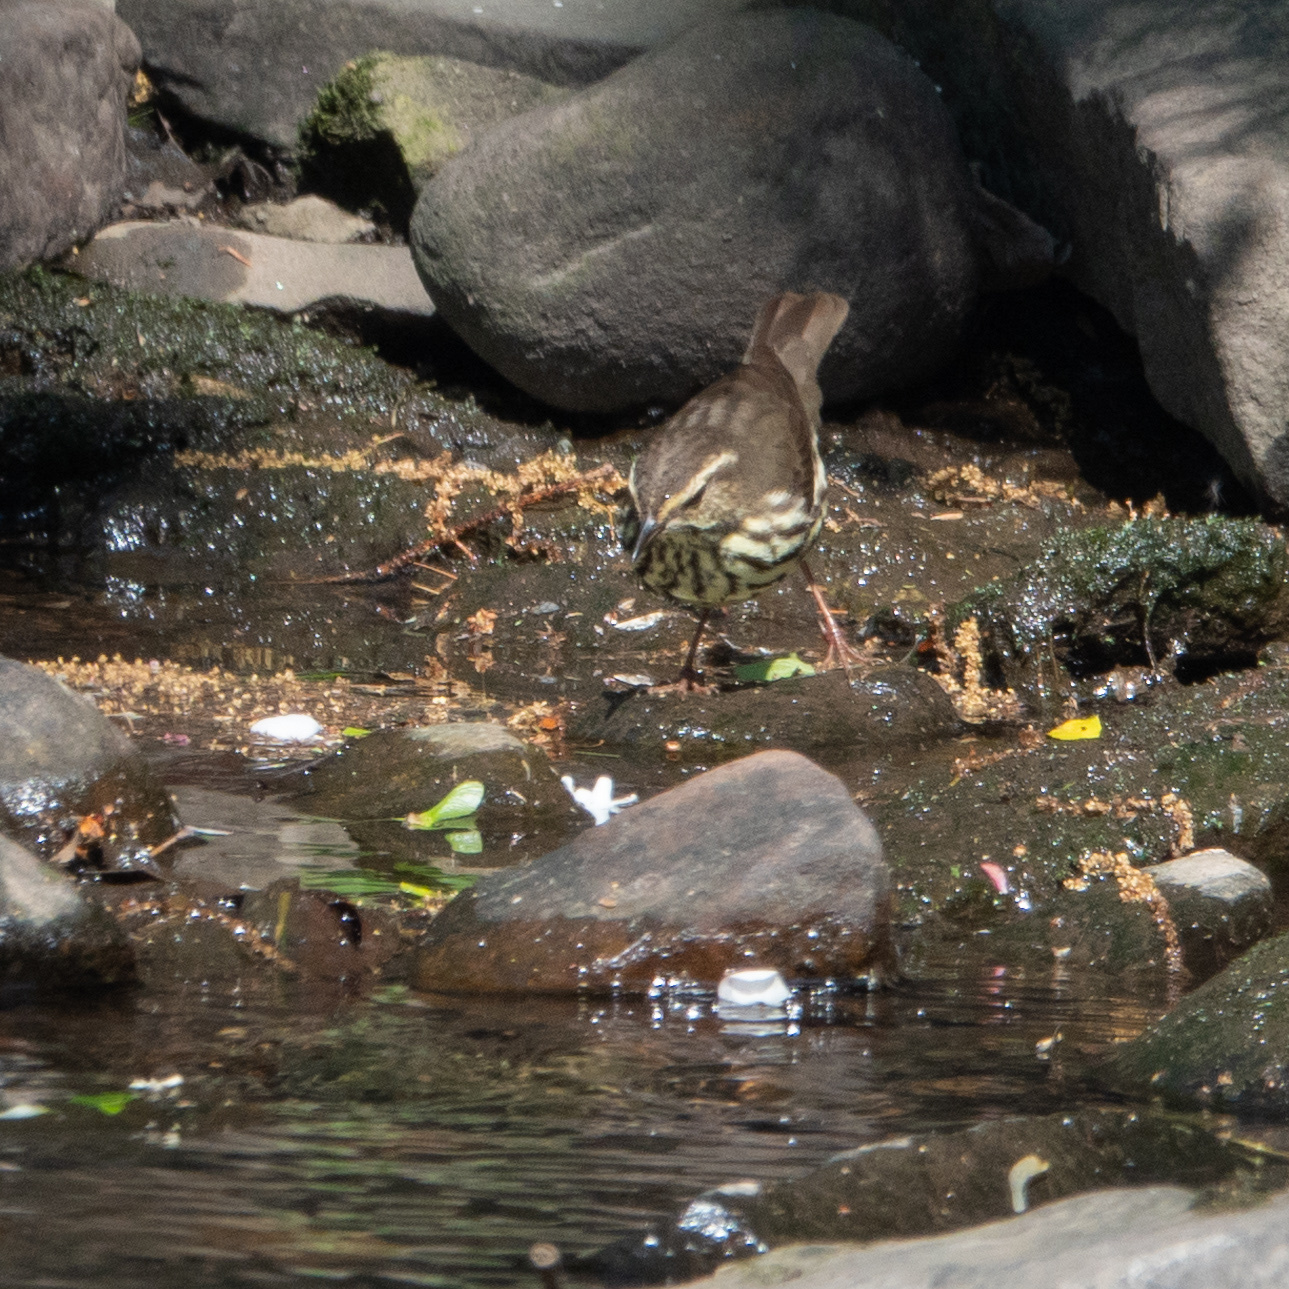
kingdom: Animalia
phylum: Chordata
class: Aves
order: Passeriformes
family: Parulidae
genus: Parkesia
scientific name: Parkesia noveboracensis
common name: Northern waterthrush
